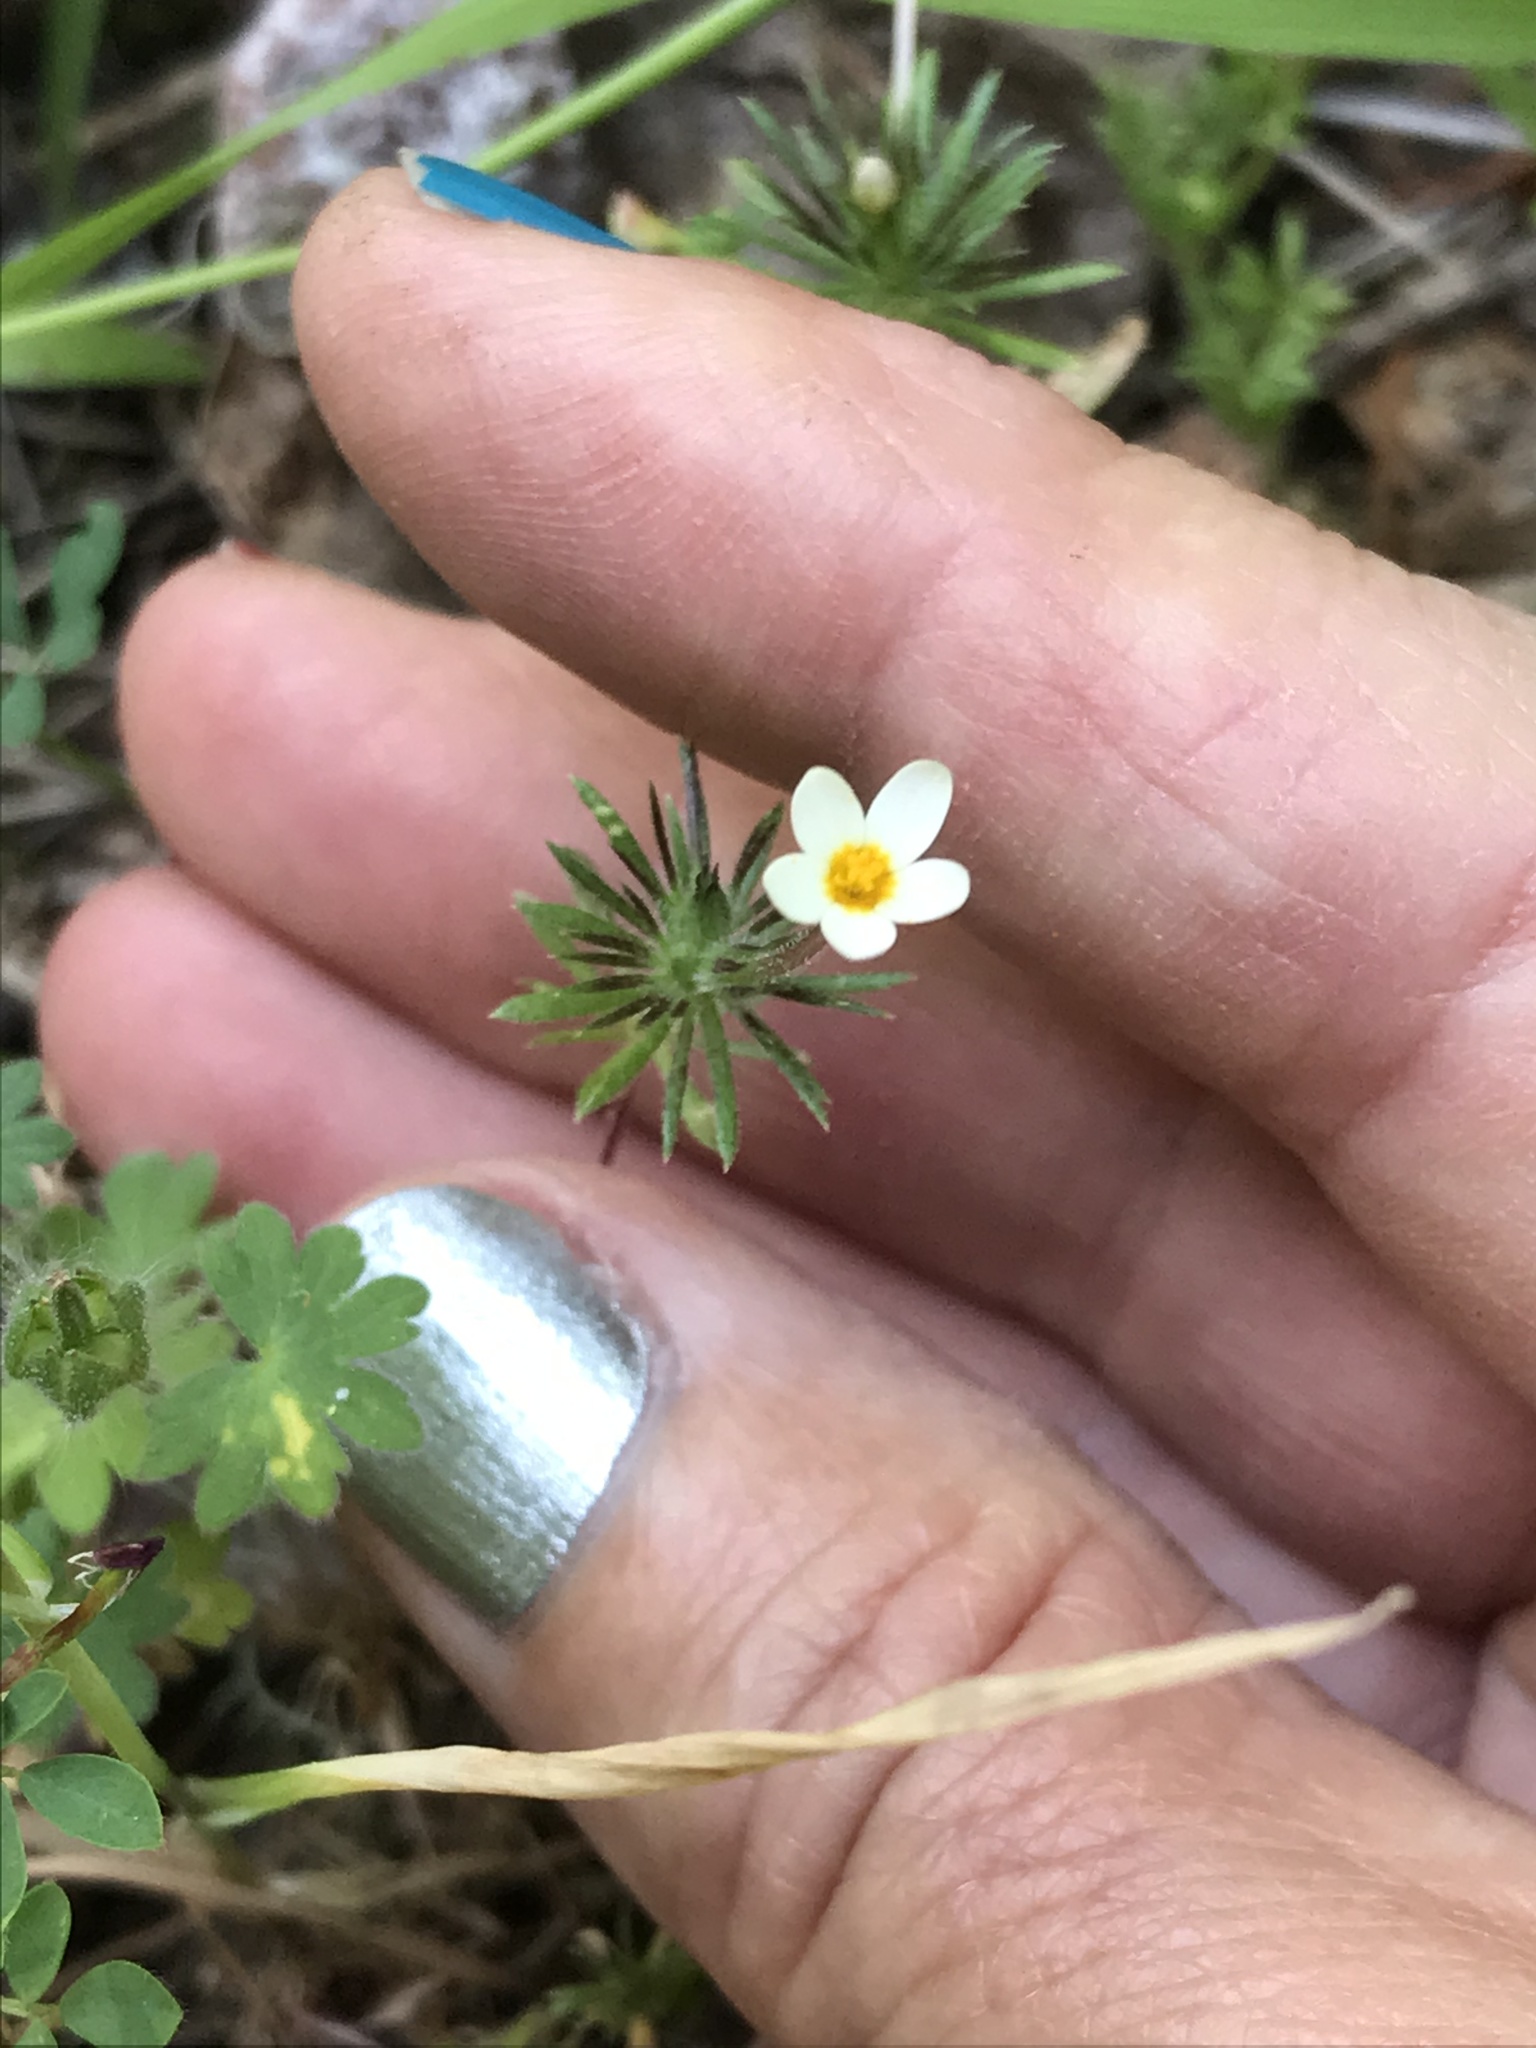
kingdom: Plantae
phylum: Tracheophyta
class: Magnoliopsida
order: Ericales
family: Polemoniaceae
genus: Leptosiphon
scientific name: Leptosiphon parviflorus
